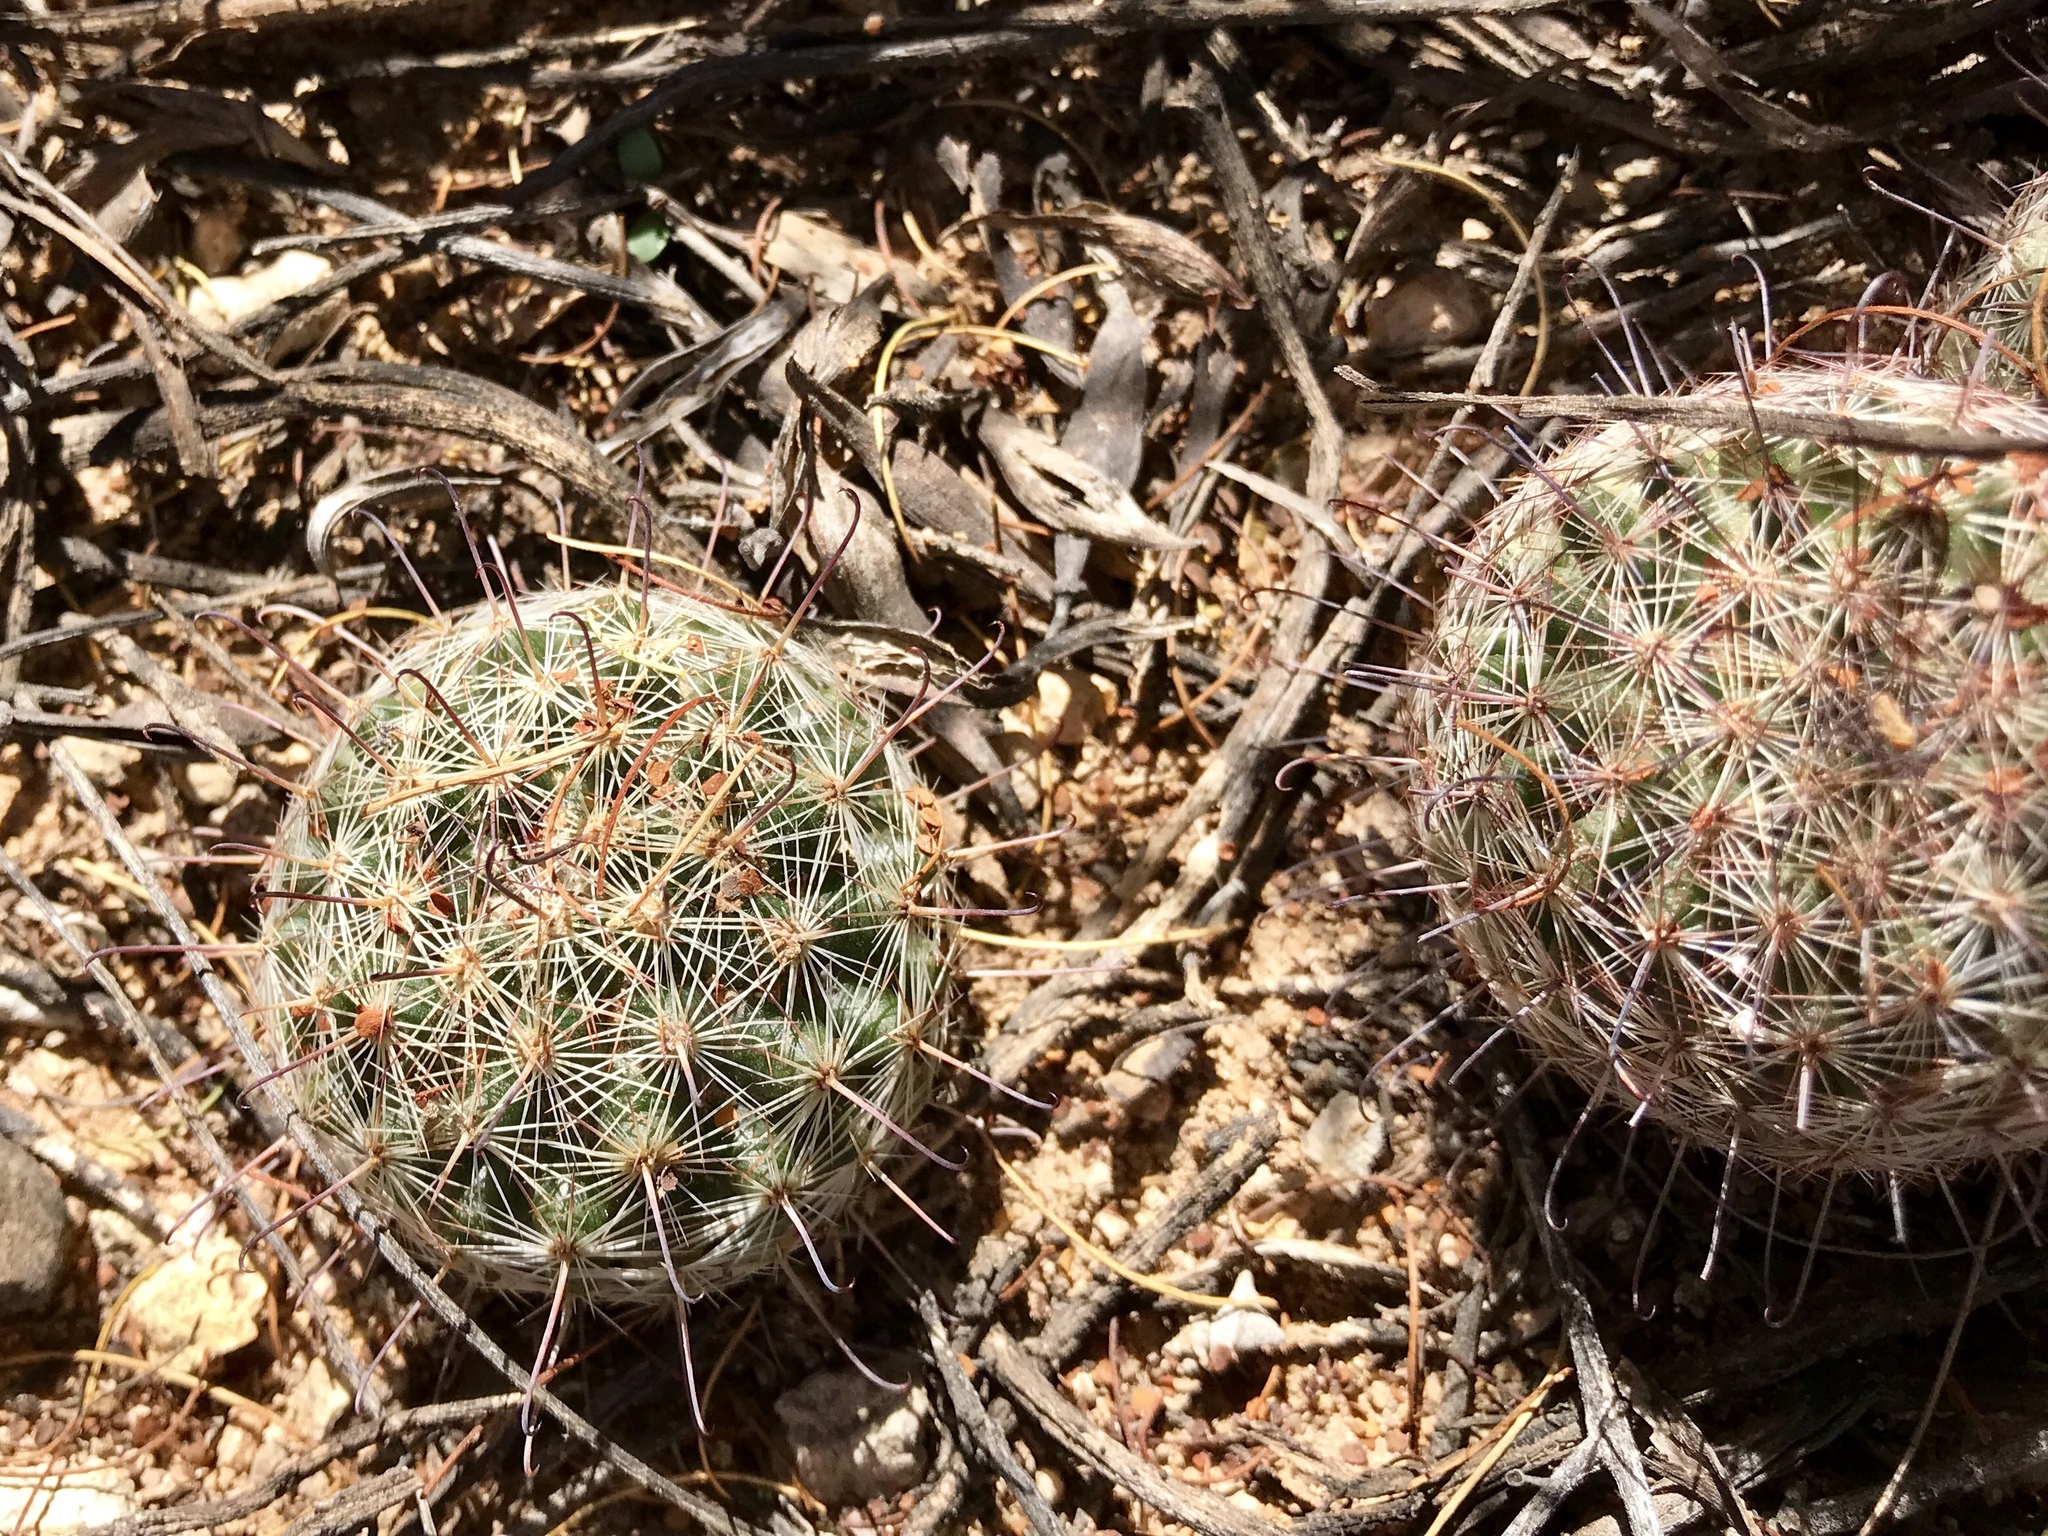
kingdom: Plantae
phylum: Tracheophyta
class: Magnoliopsida
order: Caryophyllales
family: Cactaceae
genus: Cochemiea
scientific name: Cochemiea grahamii
